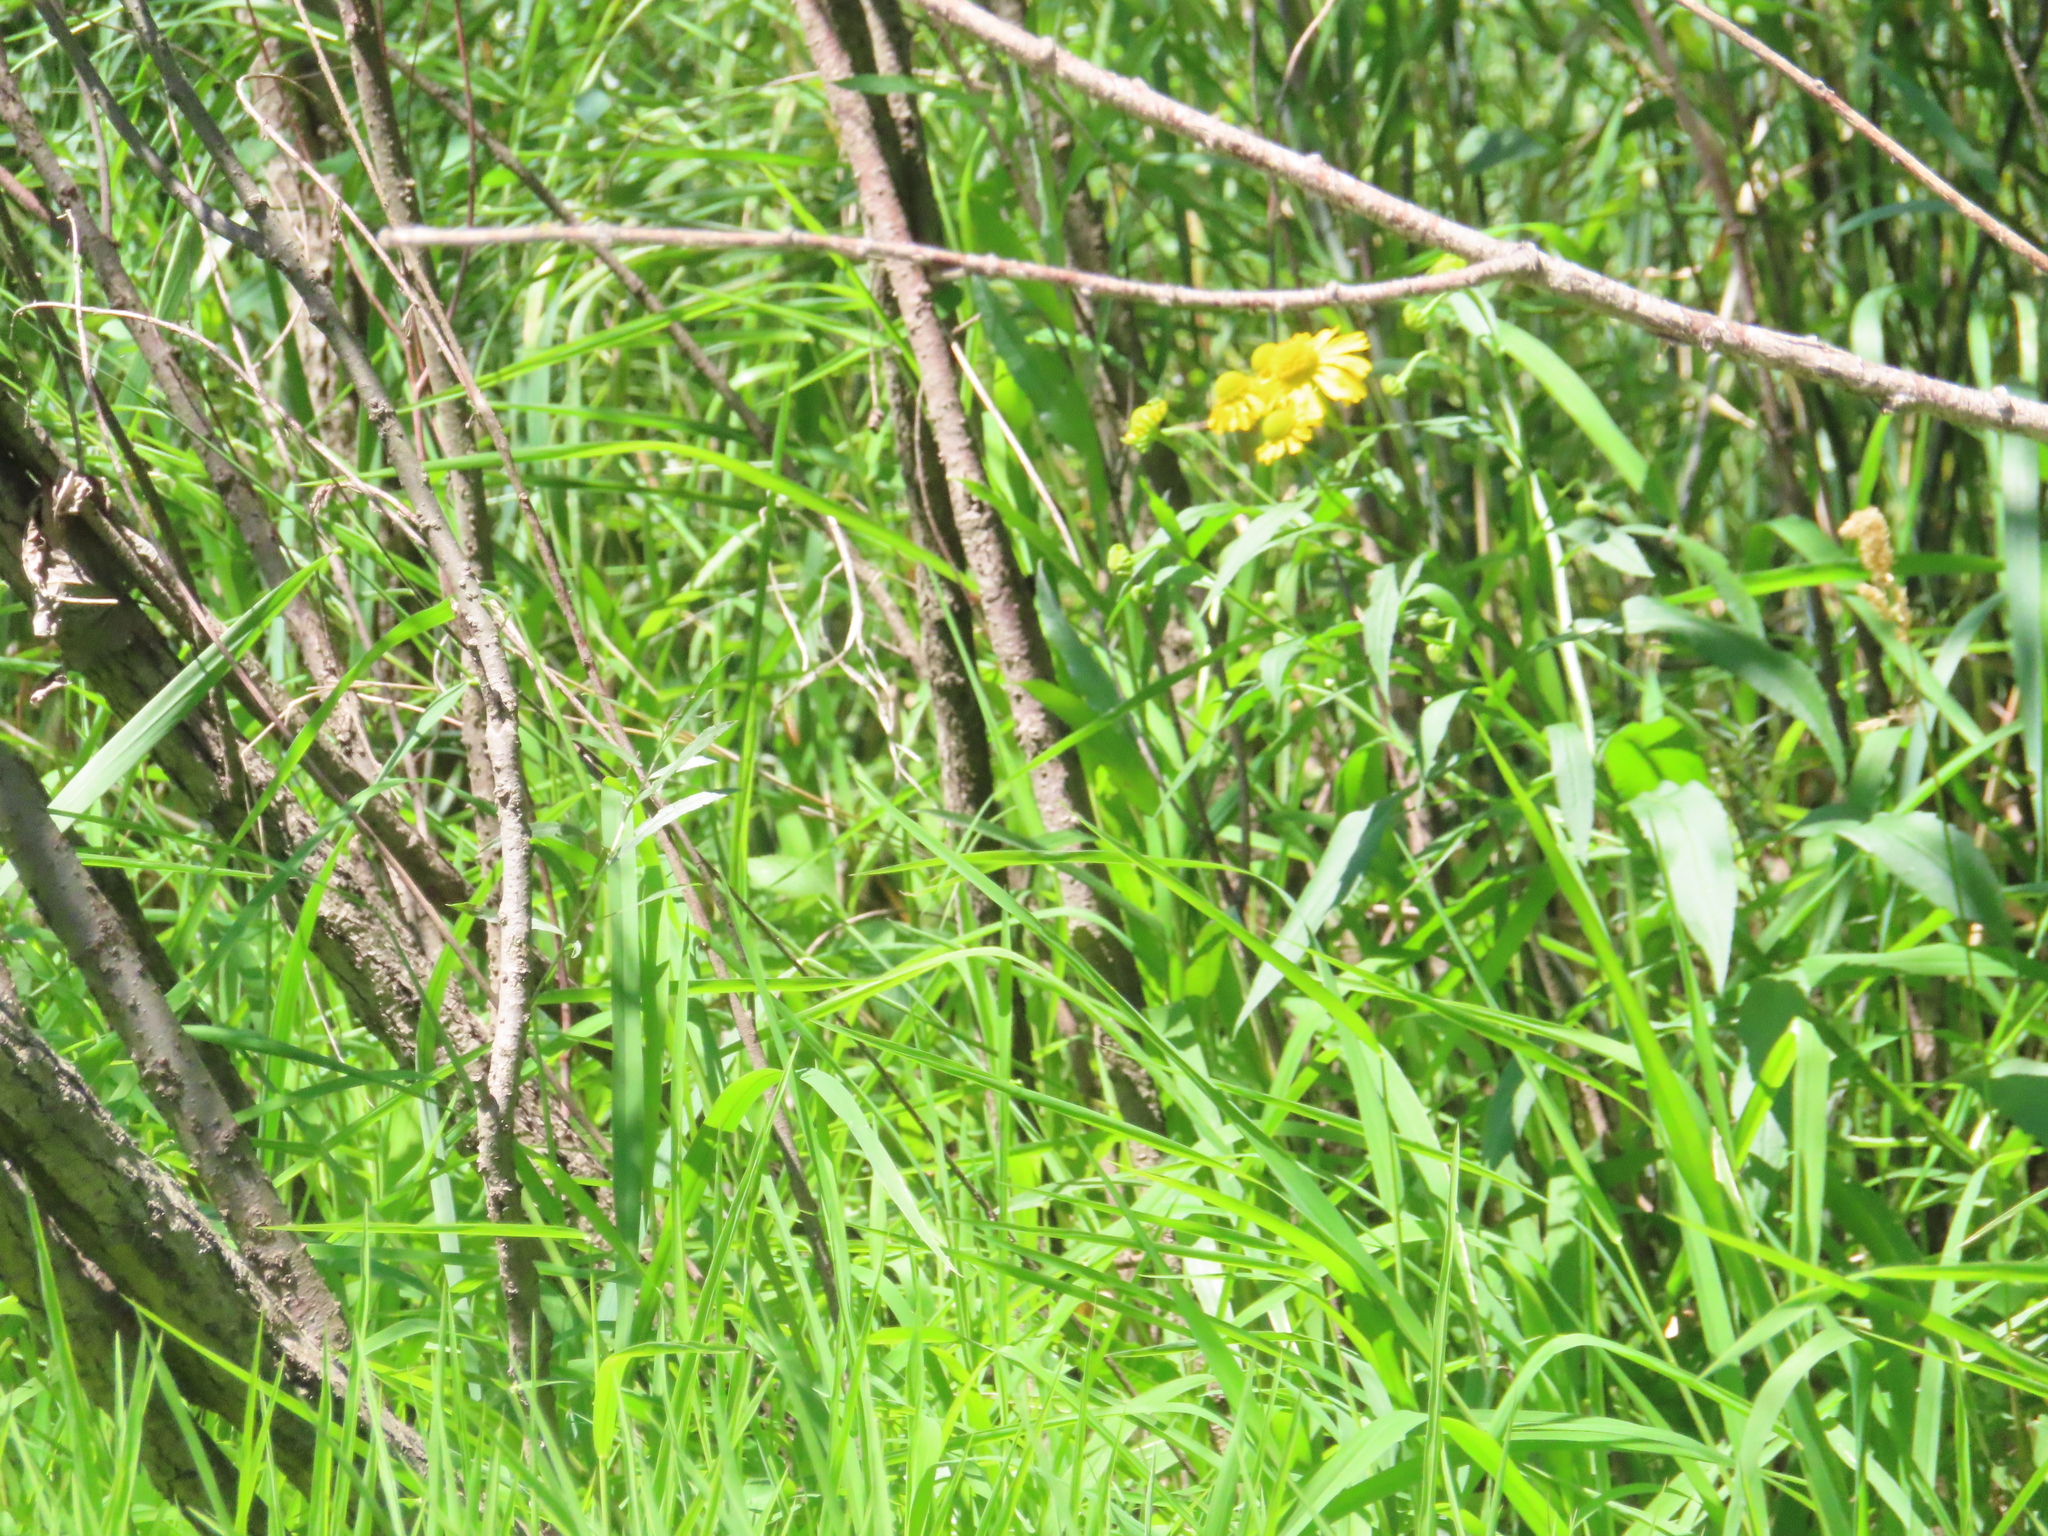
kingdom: Plantae
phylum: Tracheophyta
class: Magnoliopsida
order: Asterales
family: Asteraceae
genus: Helenium
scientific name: Helenium autumnale
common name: Sneezeweed
